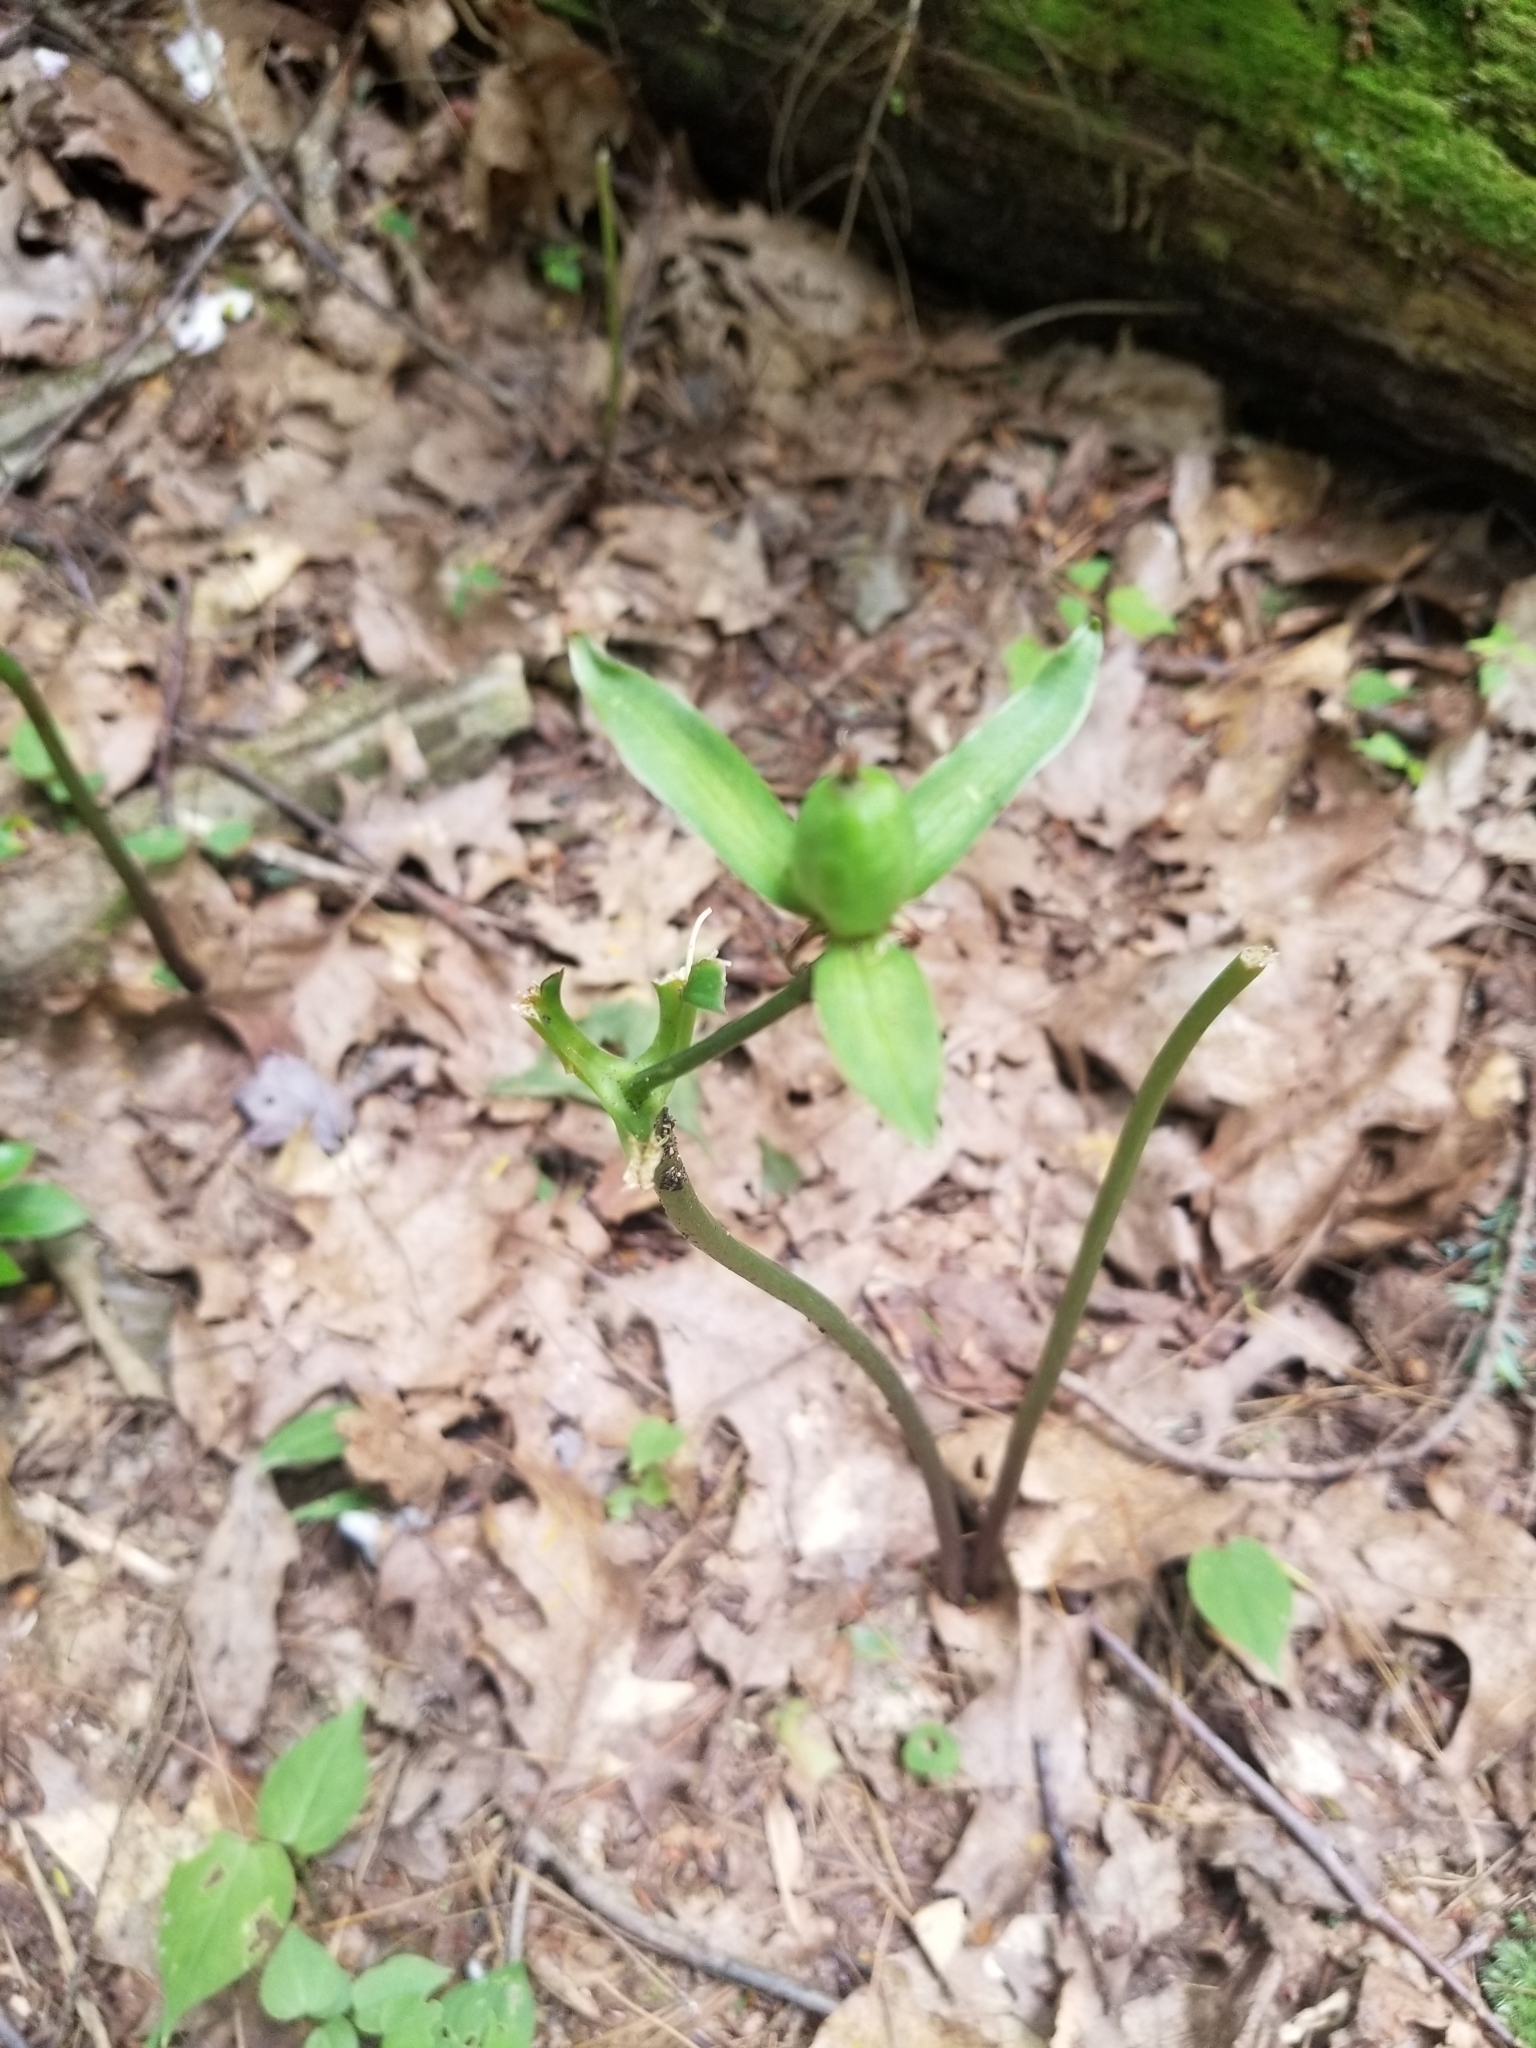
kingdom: Plantae
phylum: Tracheophyta
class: Liliopsida
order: Liliales
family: Melanthiaceae
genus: Trillium
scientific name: Trillium undulatum
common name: Paint trillium
